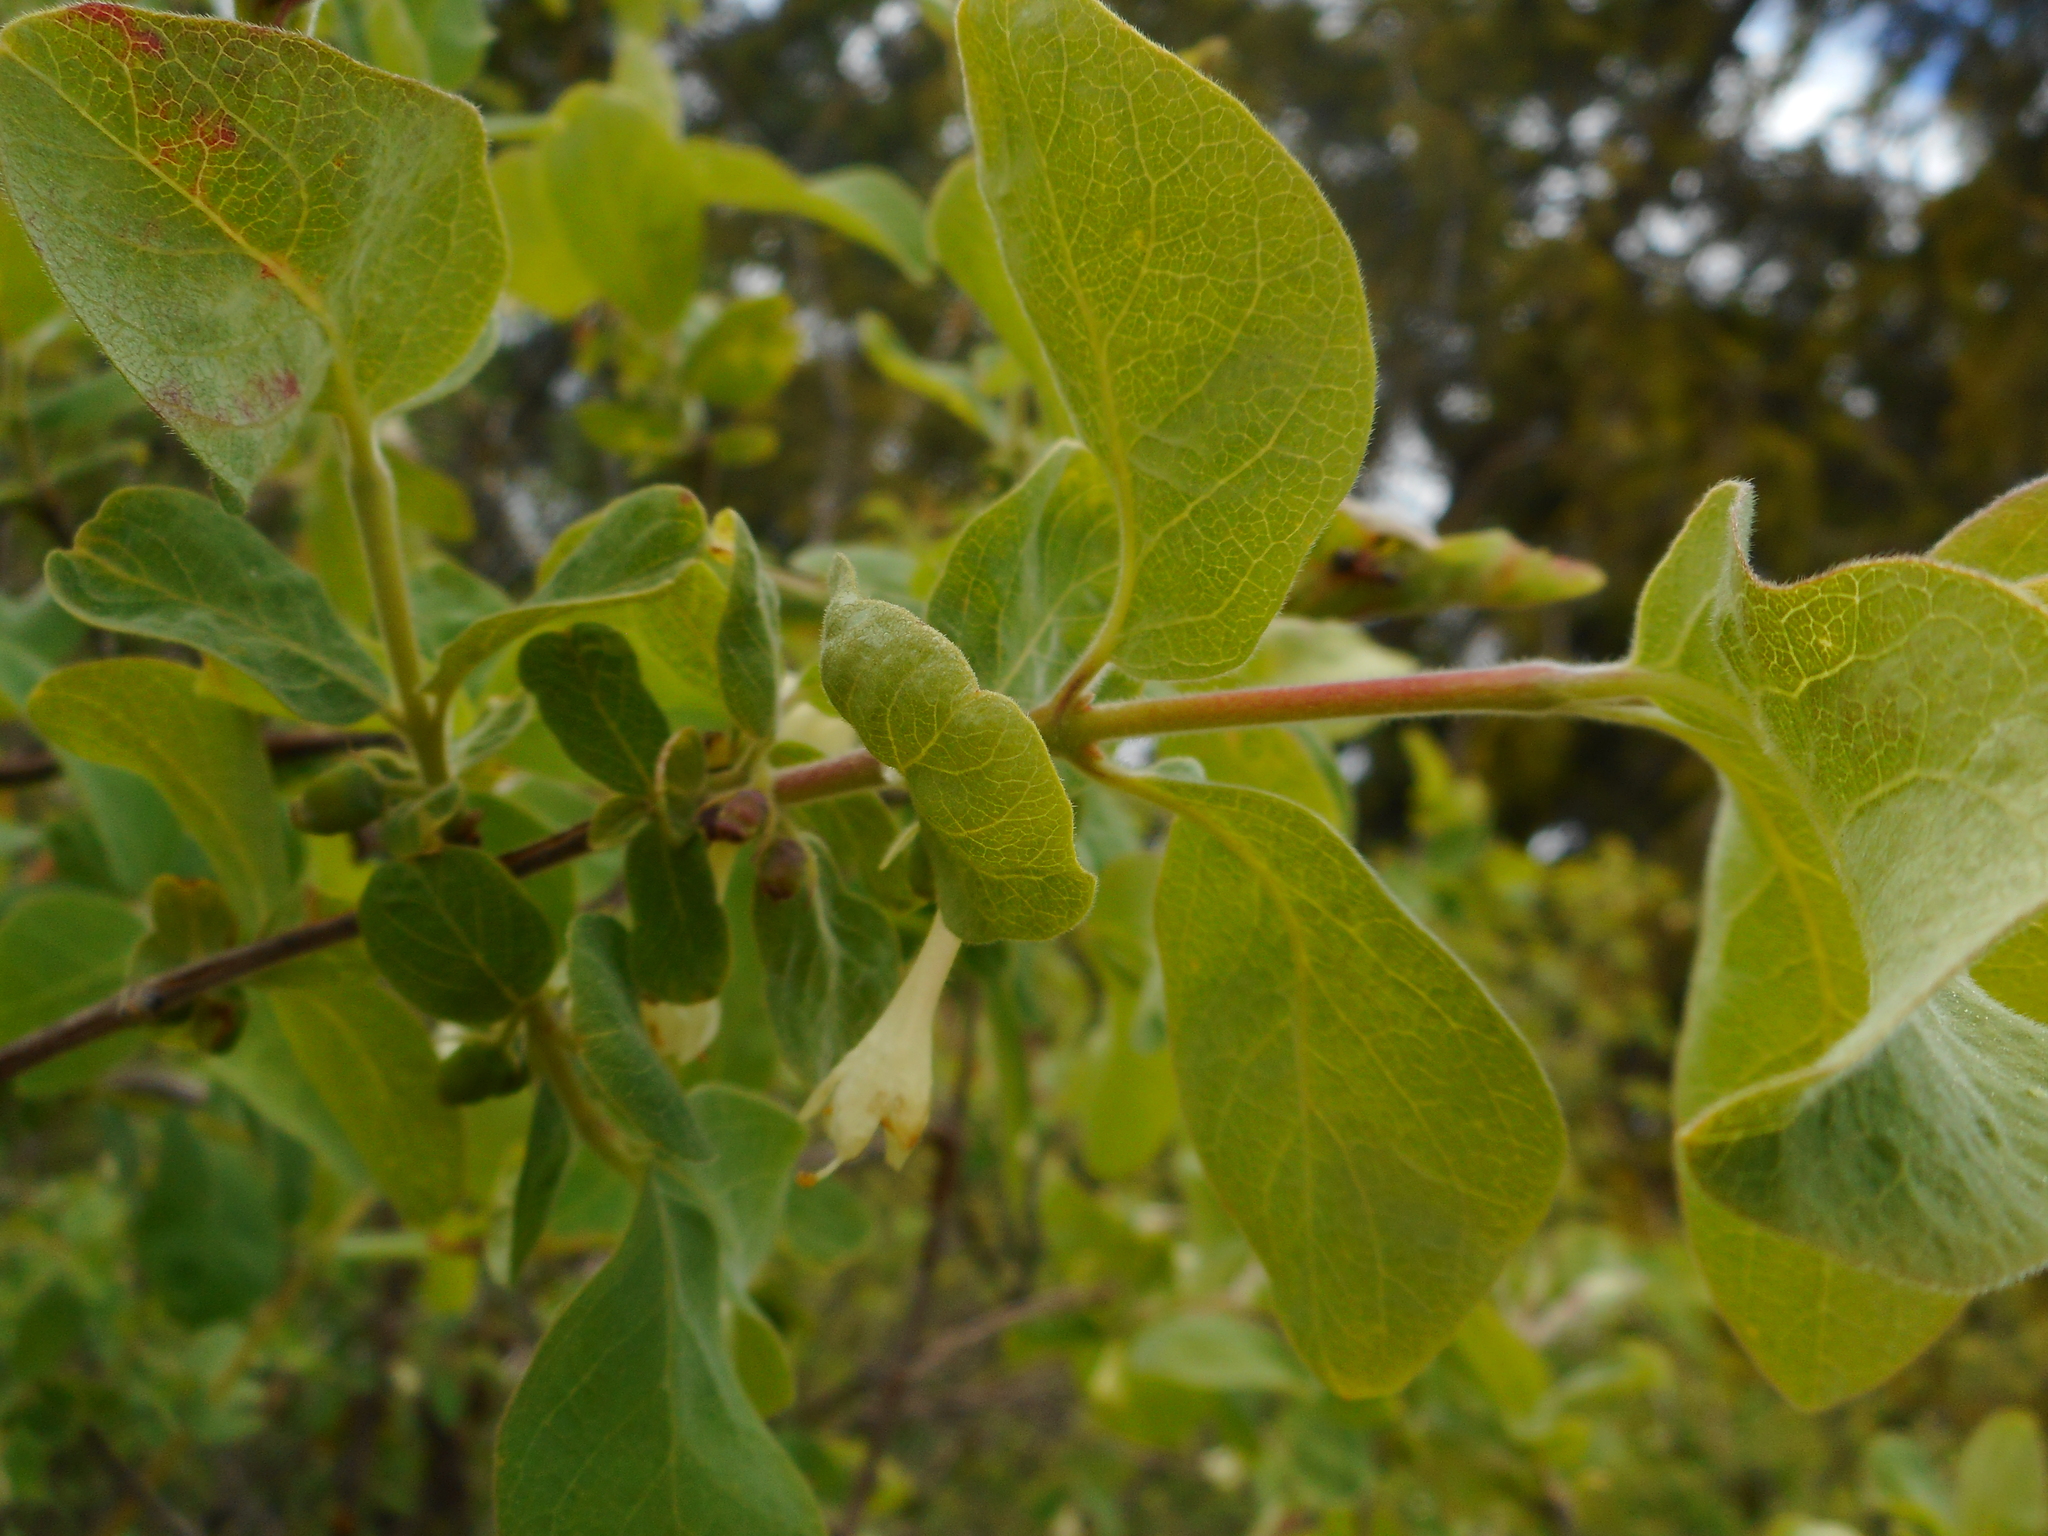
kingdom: Plantae
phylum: Tracheophyta
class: Magnoliopsida
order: Dipsacales
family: Caprifoliaceae
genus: Lonicera
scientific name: Lonicera caerulea
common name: Blue honeysuckle
